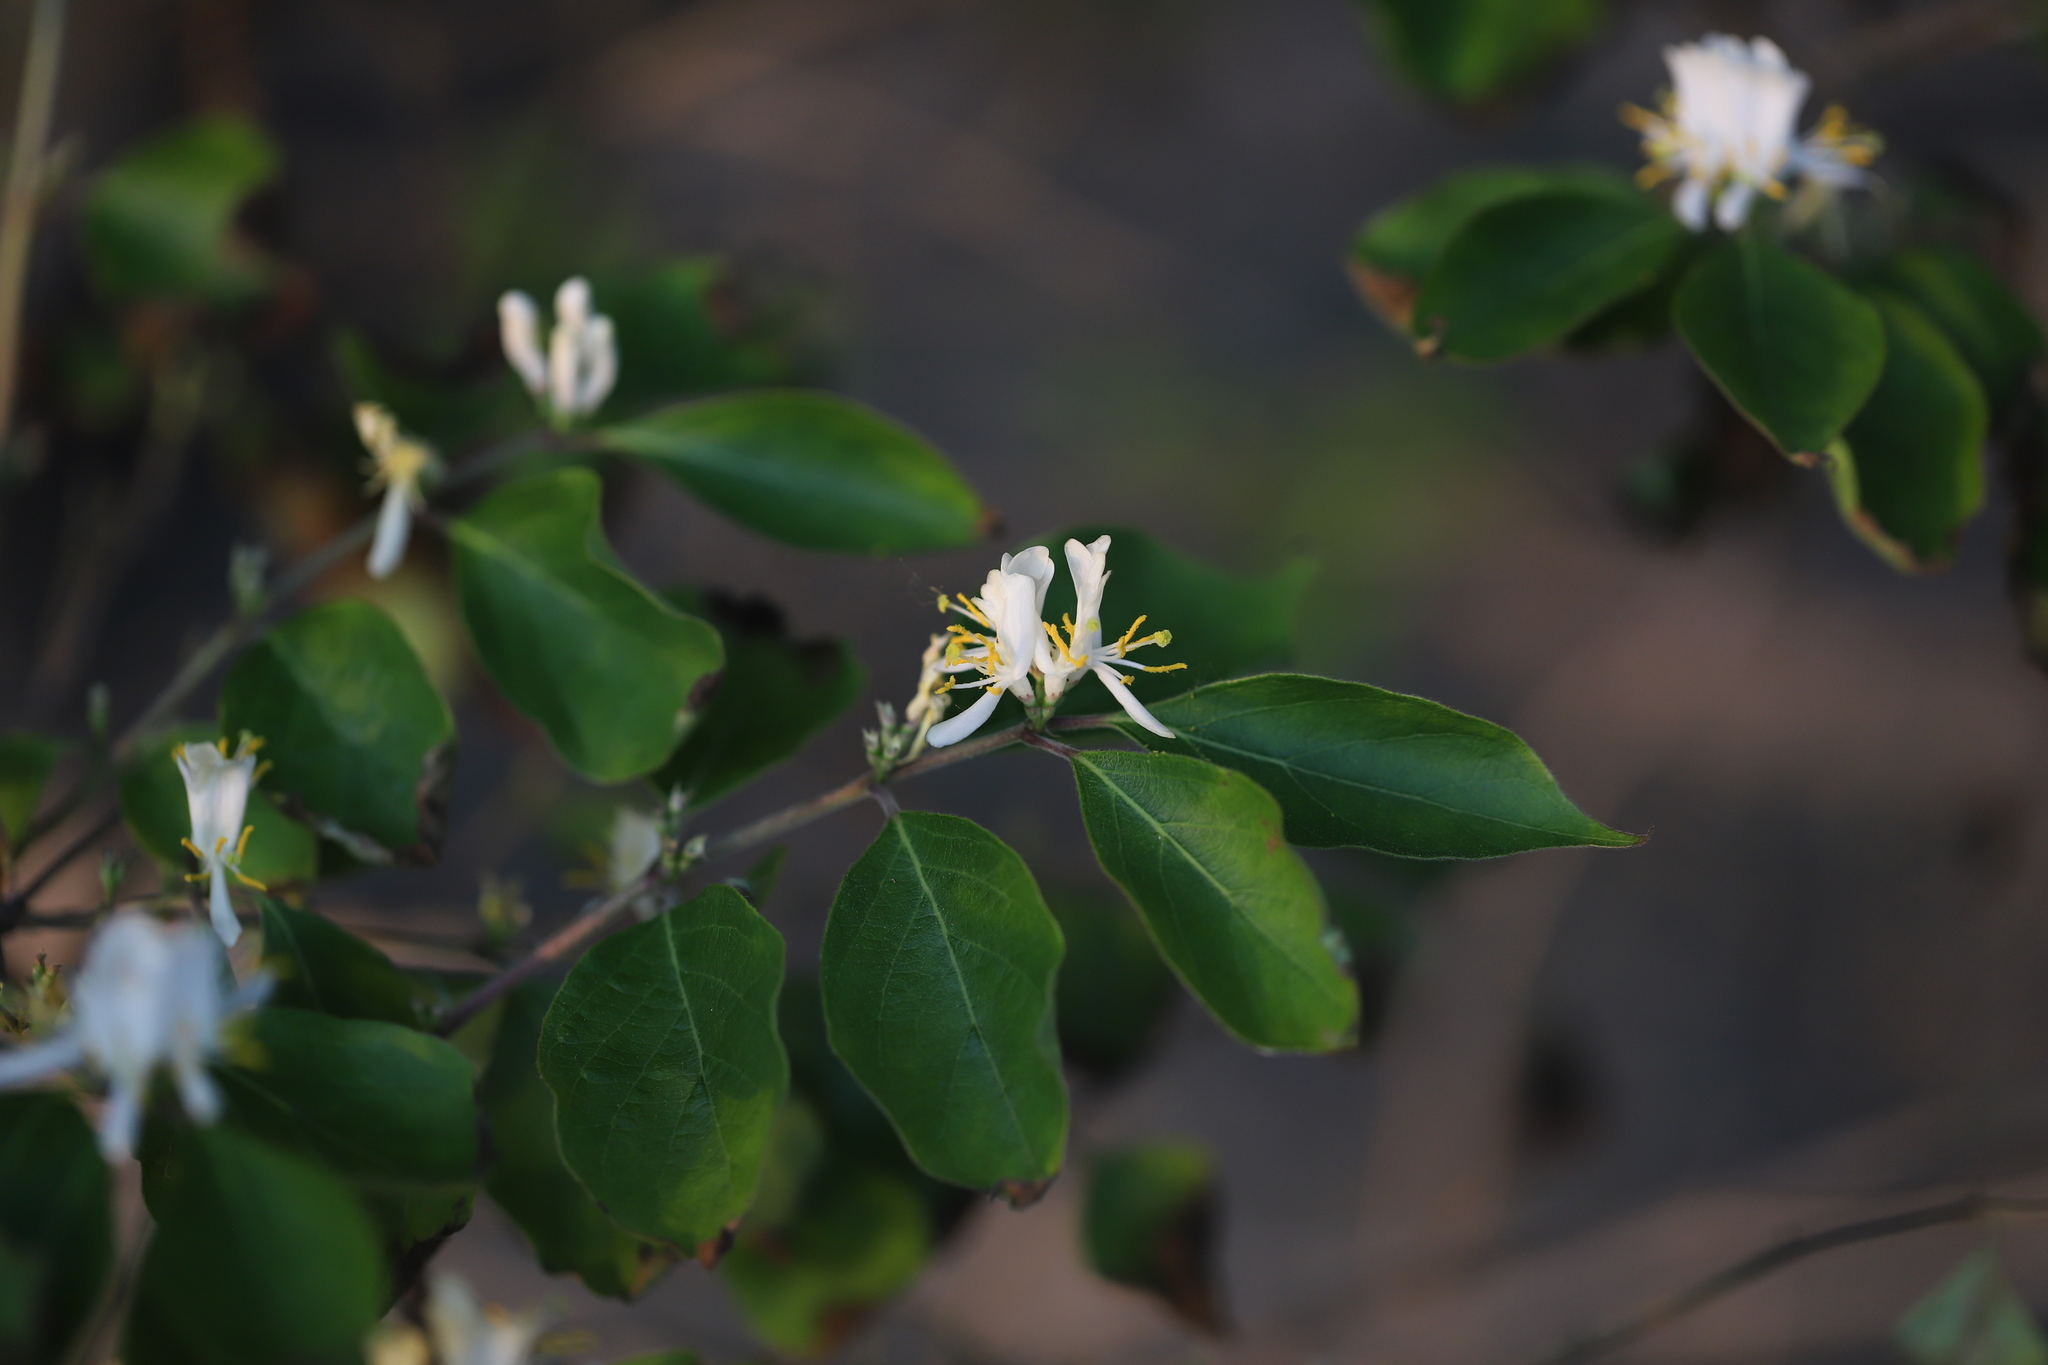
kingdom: Plantae
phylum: Tracheophyta
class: Magnoliopsida
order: Dipsacales
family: Caprifoliaceae
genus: Lonicera
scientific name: Lonicera maackii
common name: Amur honeysuckle
